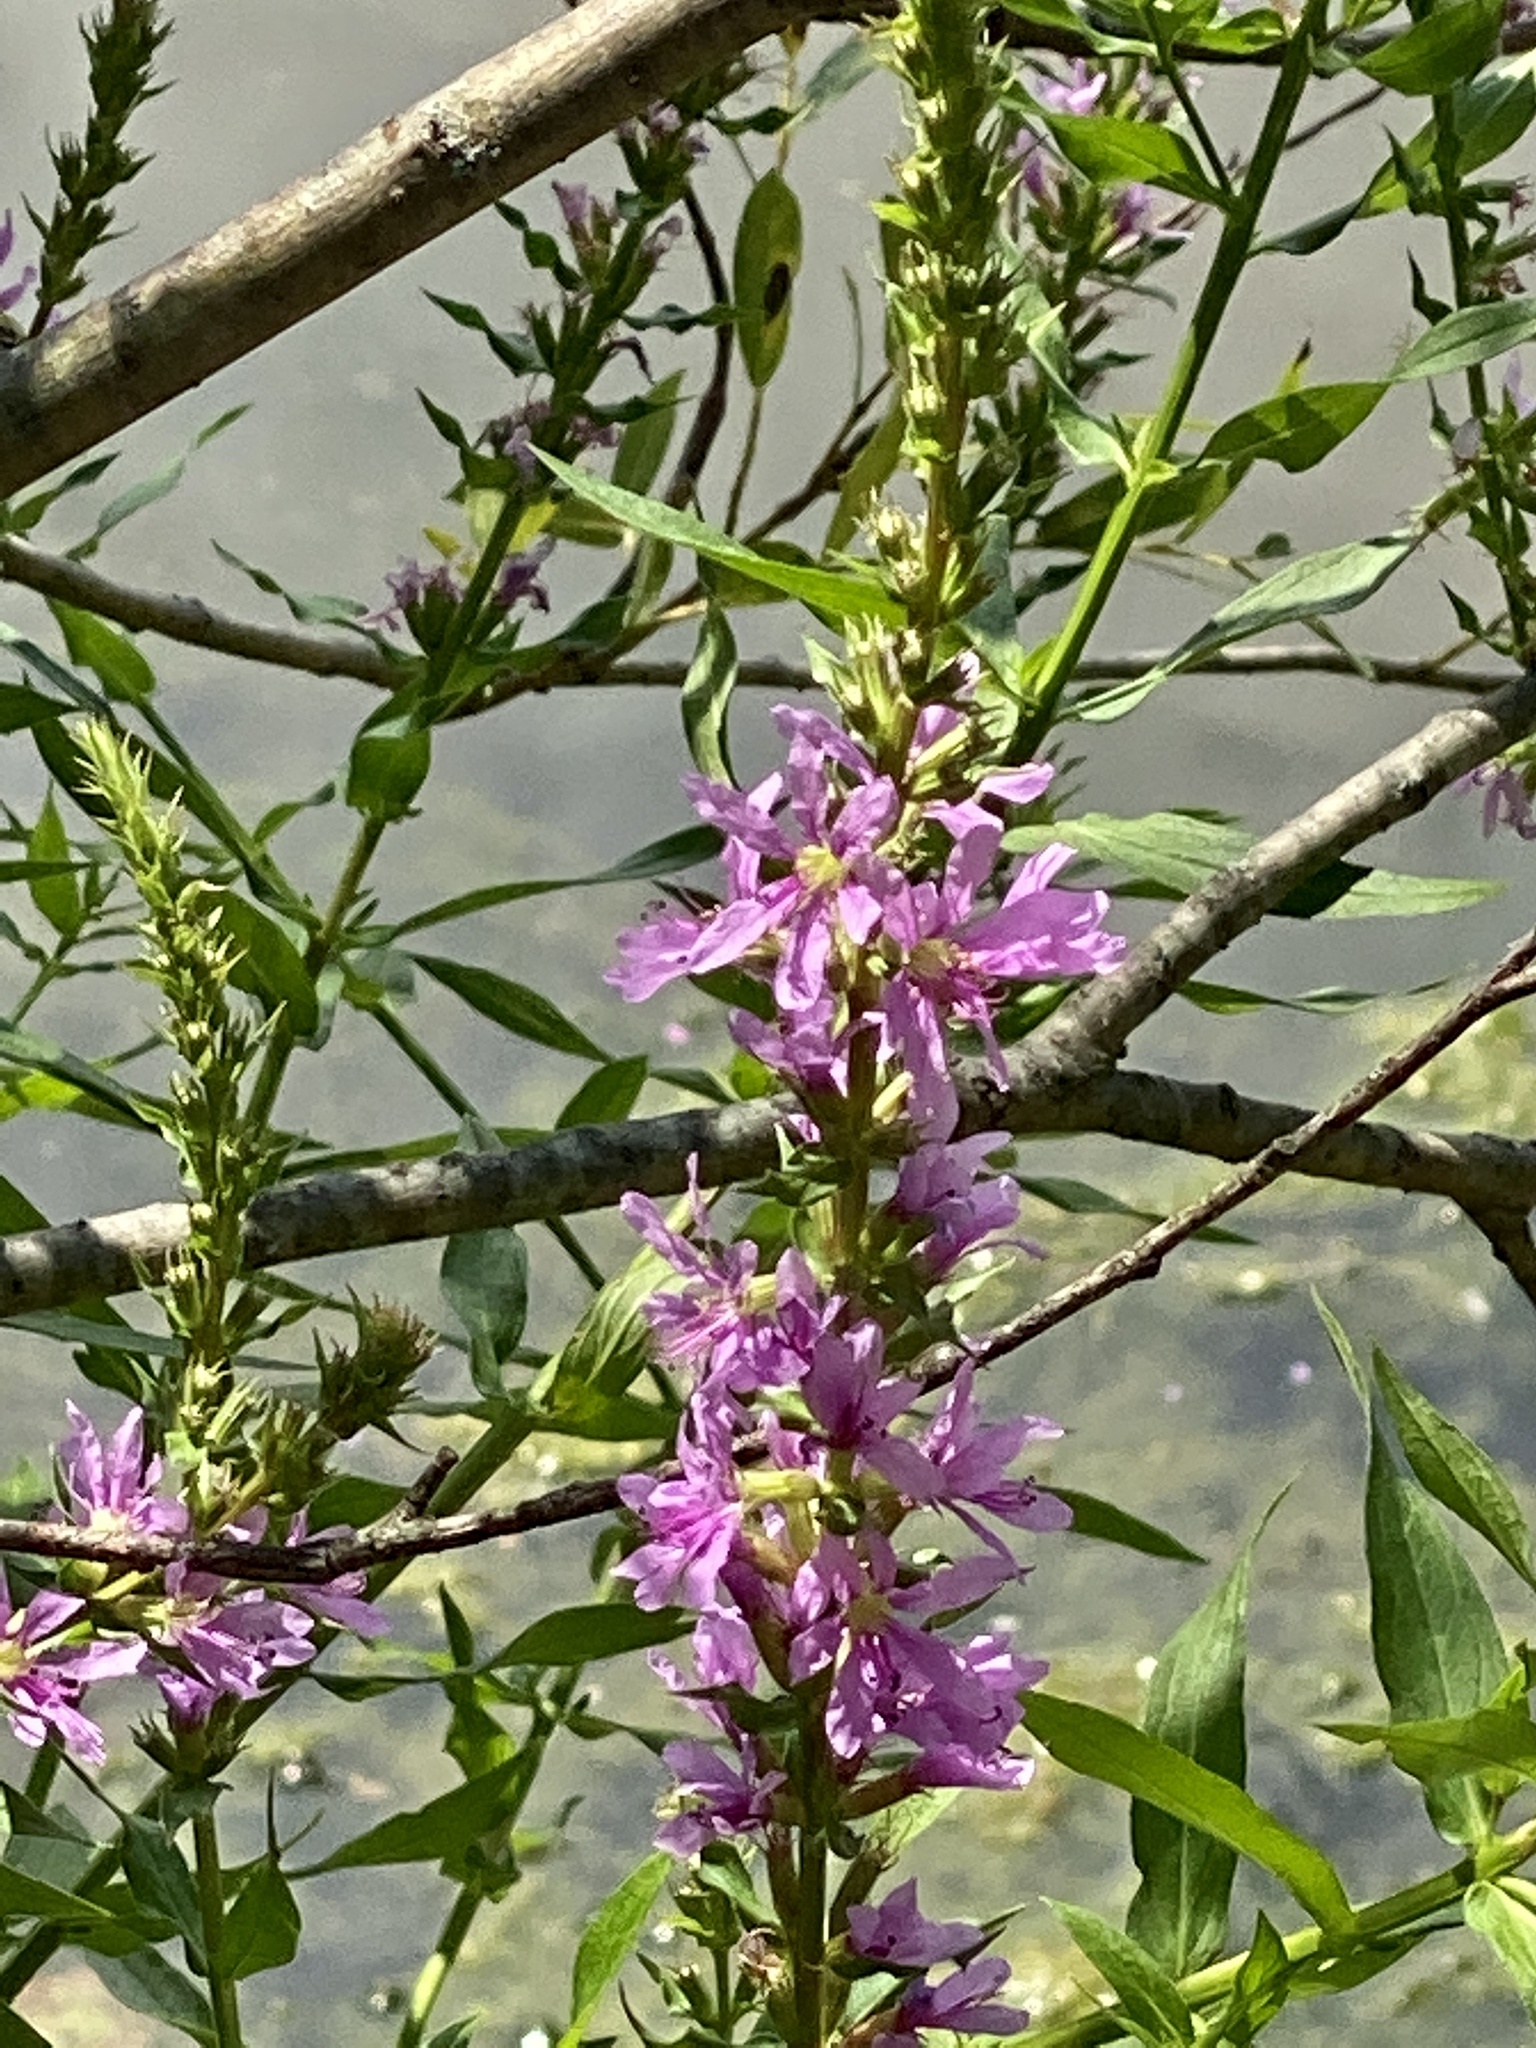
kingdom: Plantae
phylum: Tracheophyta
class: Magnoliopsida
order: Myrtales
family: Lythraceae
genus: Lythrum
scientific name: Lythrum salicaria
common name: Purple loosestrife
